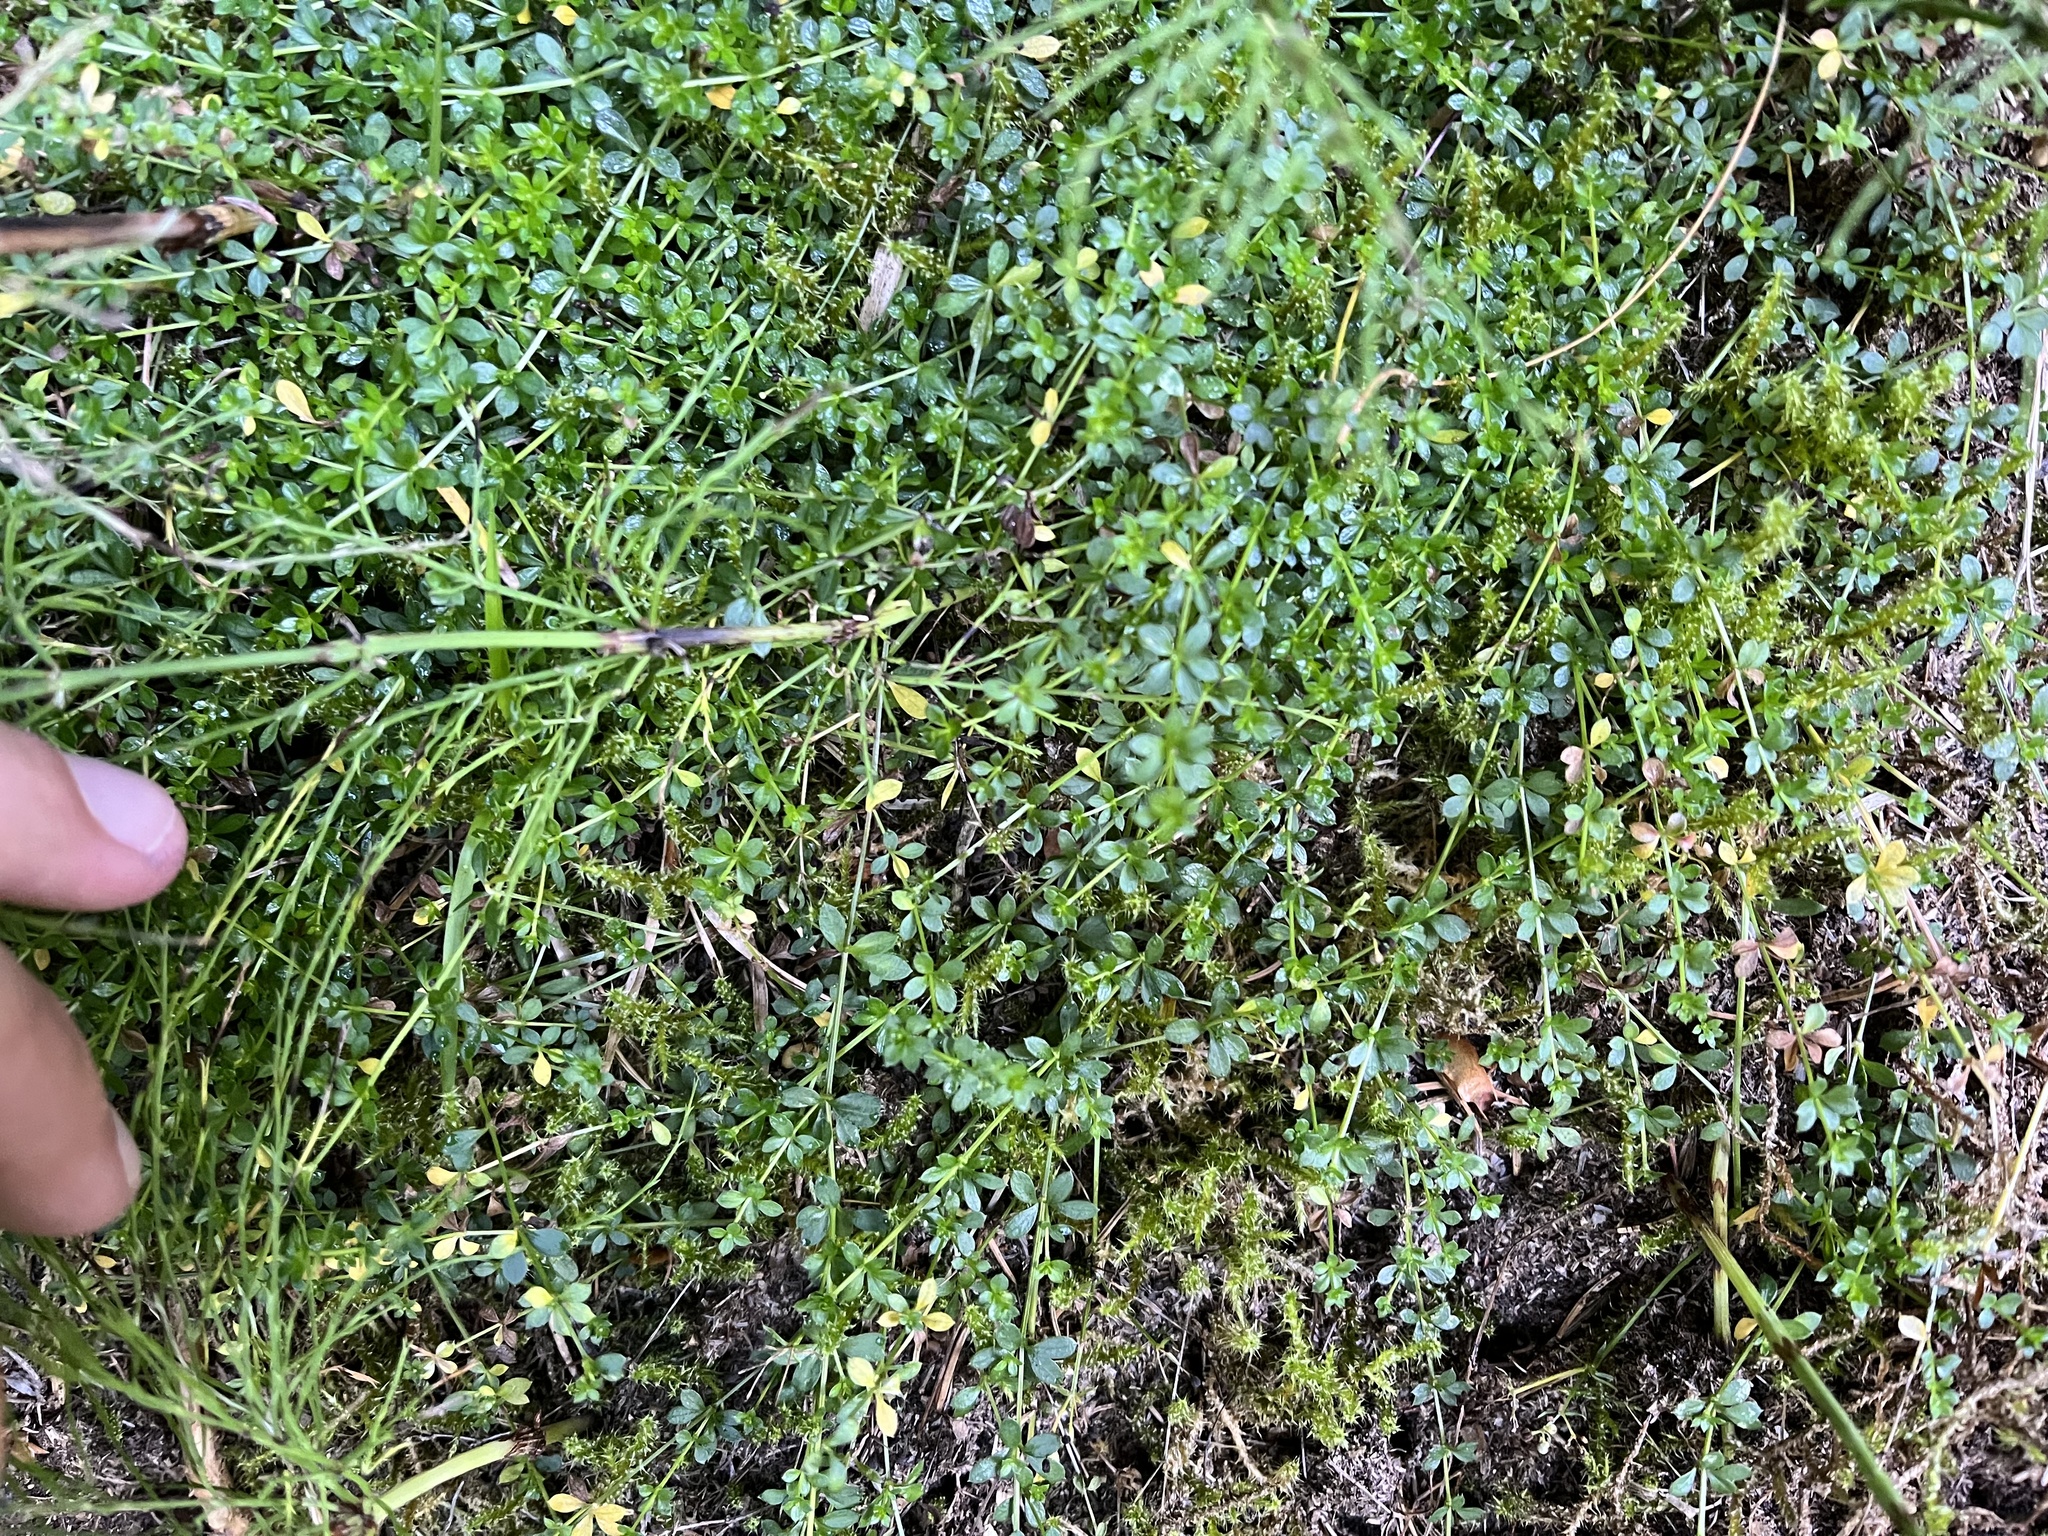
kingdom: Plantae
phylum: Tracheophyta
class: Magnoliopsida
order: Gentianales
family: Rubiaceae
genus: Galium
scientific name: Galium saxatile
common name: Heath bedstraw
